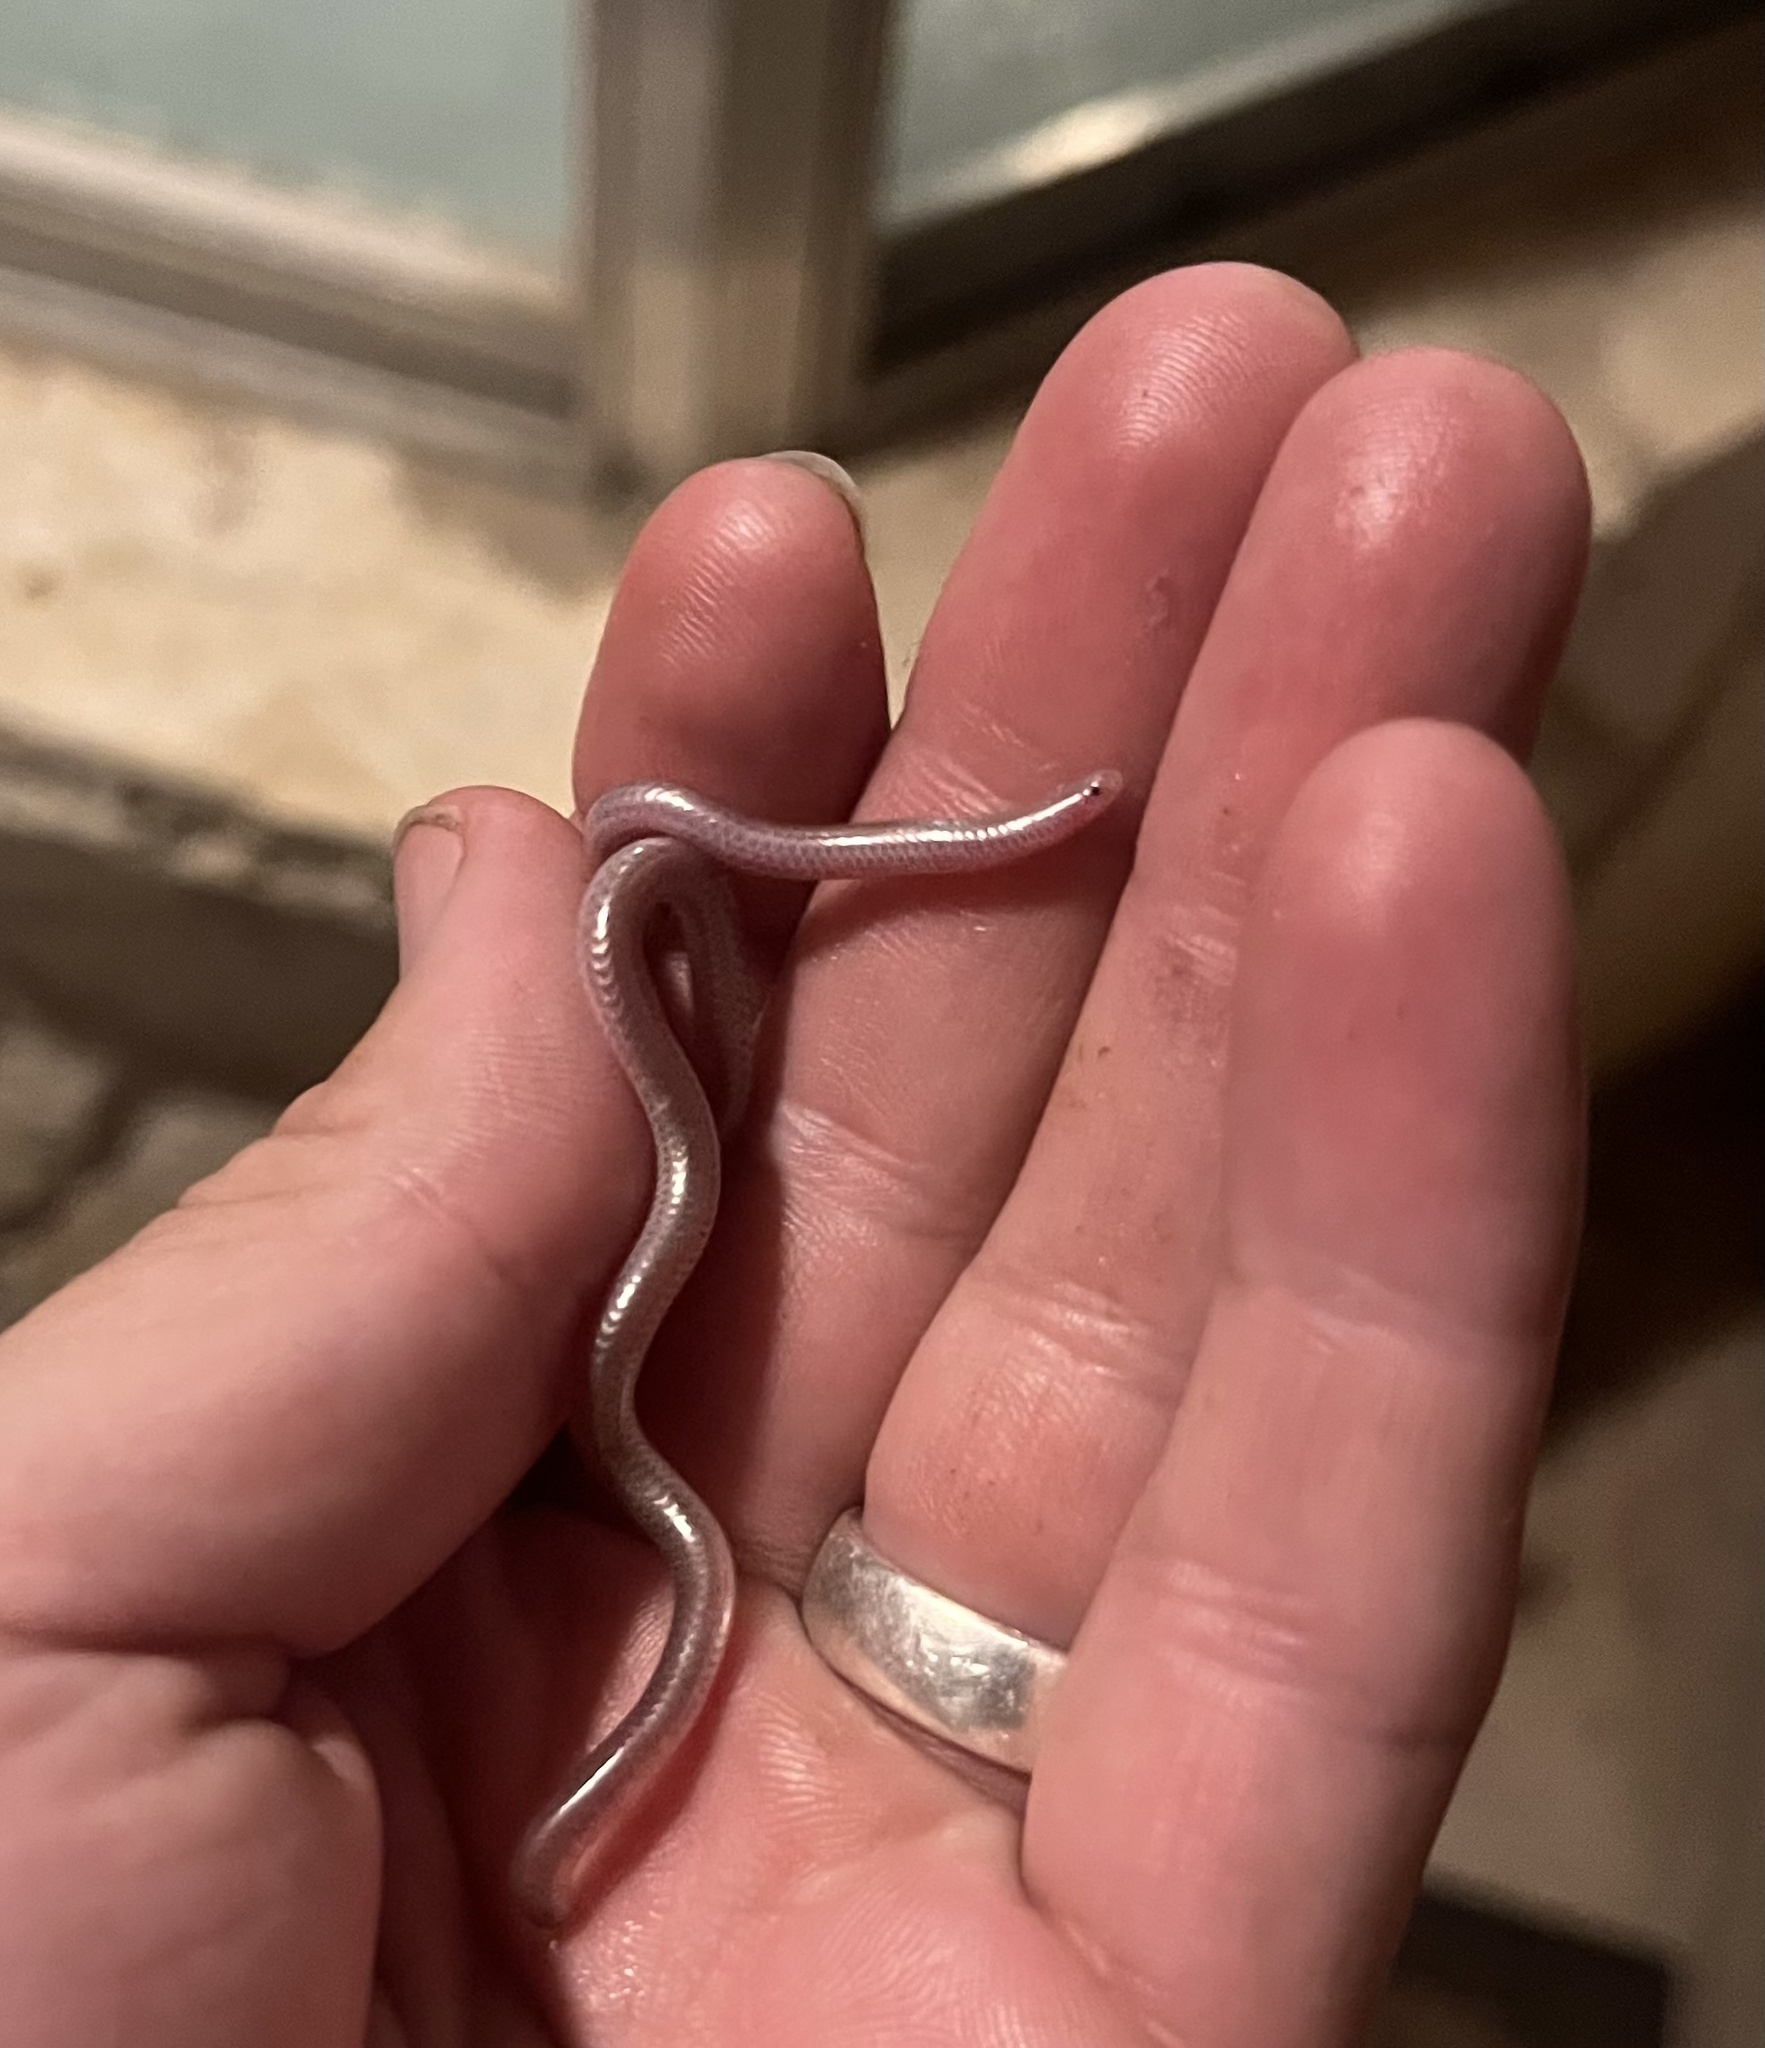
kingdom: Animalia
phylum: Chordata
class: Squamata
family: Leptotyphlopidae
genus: Rena
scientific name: Rena dulcis
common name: Texas blind snake
